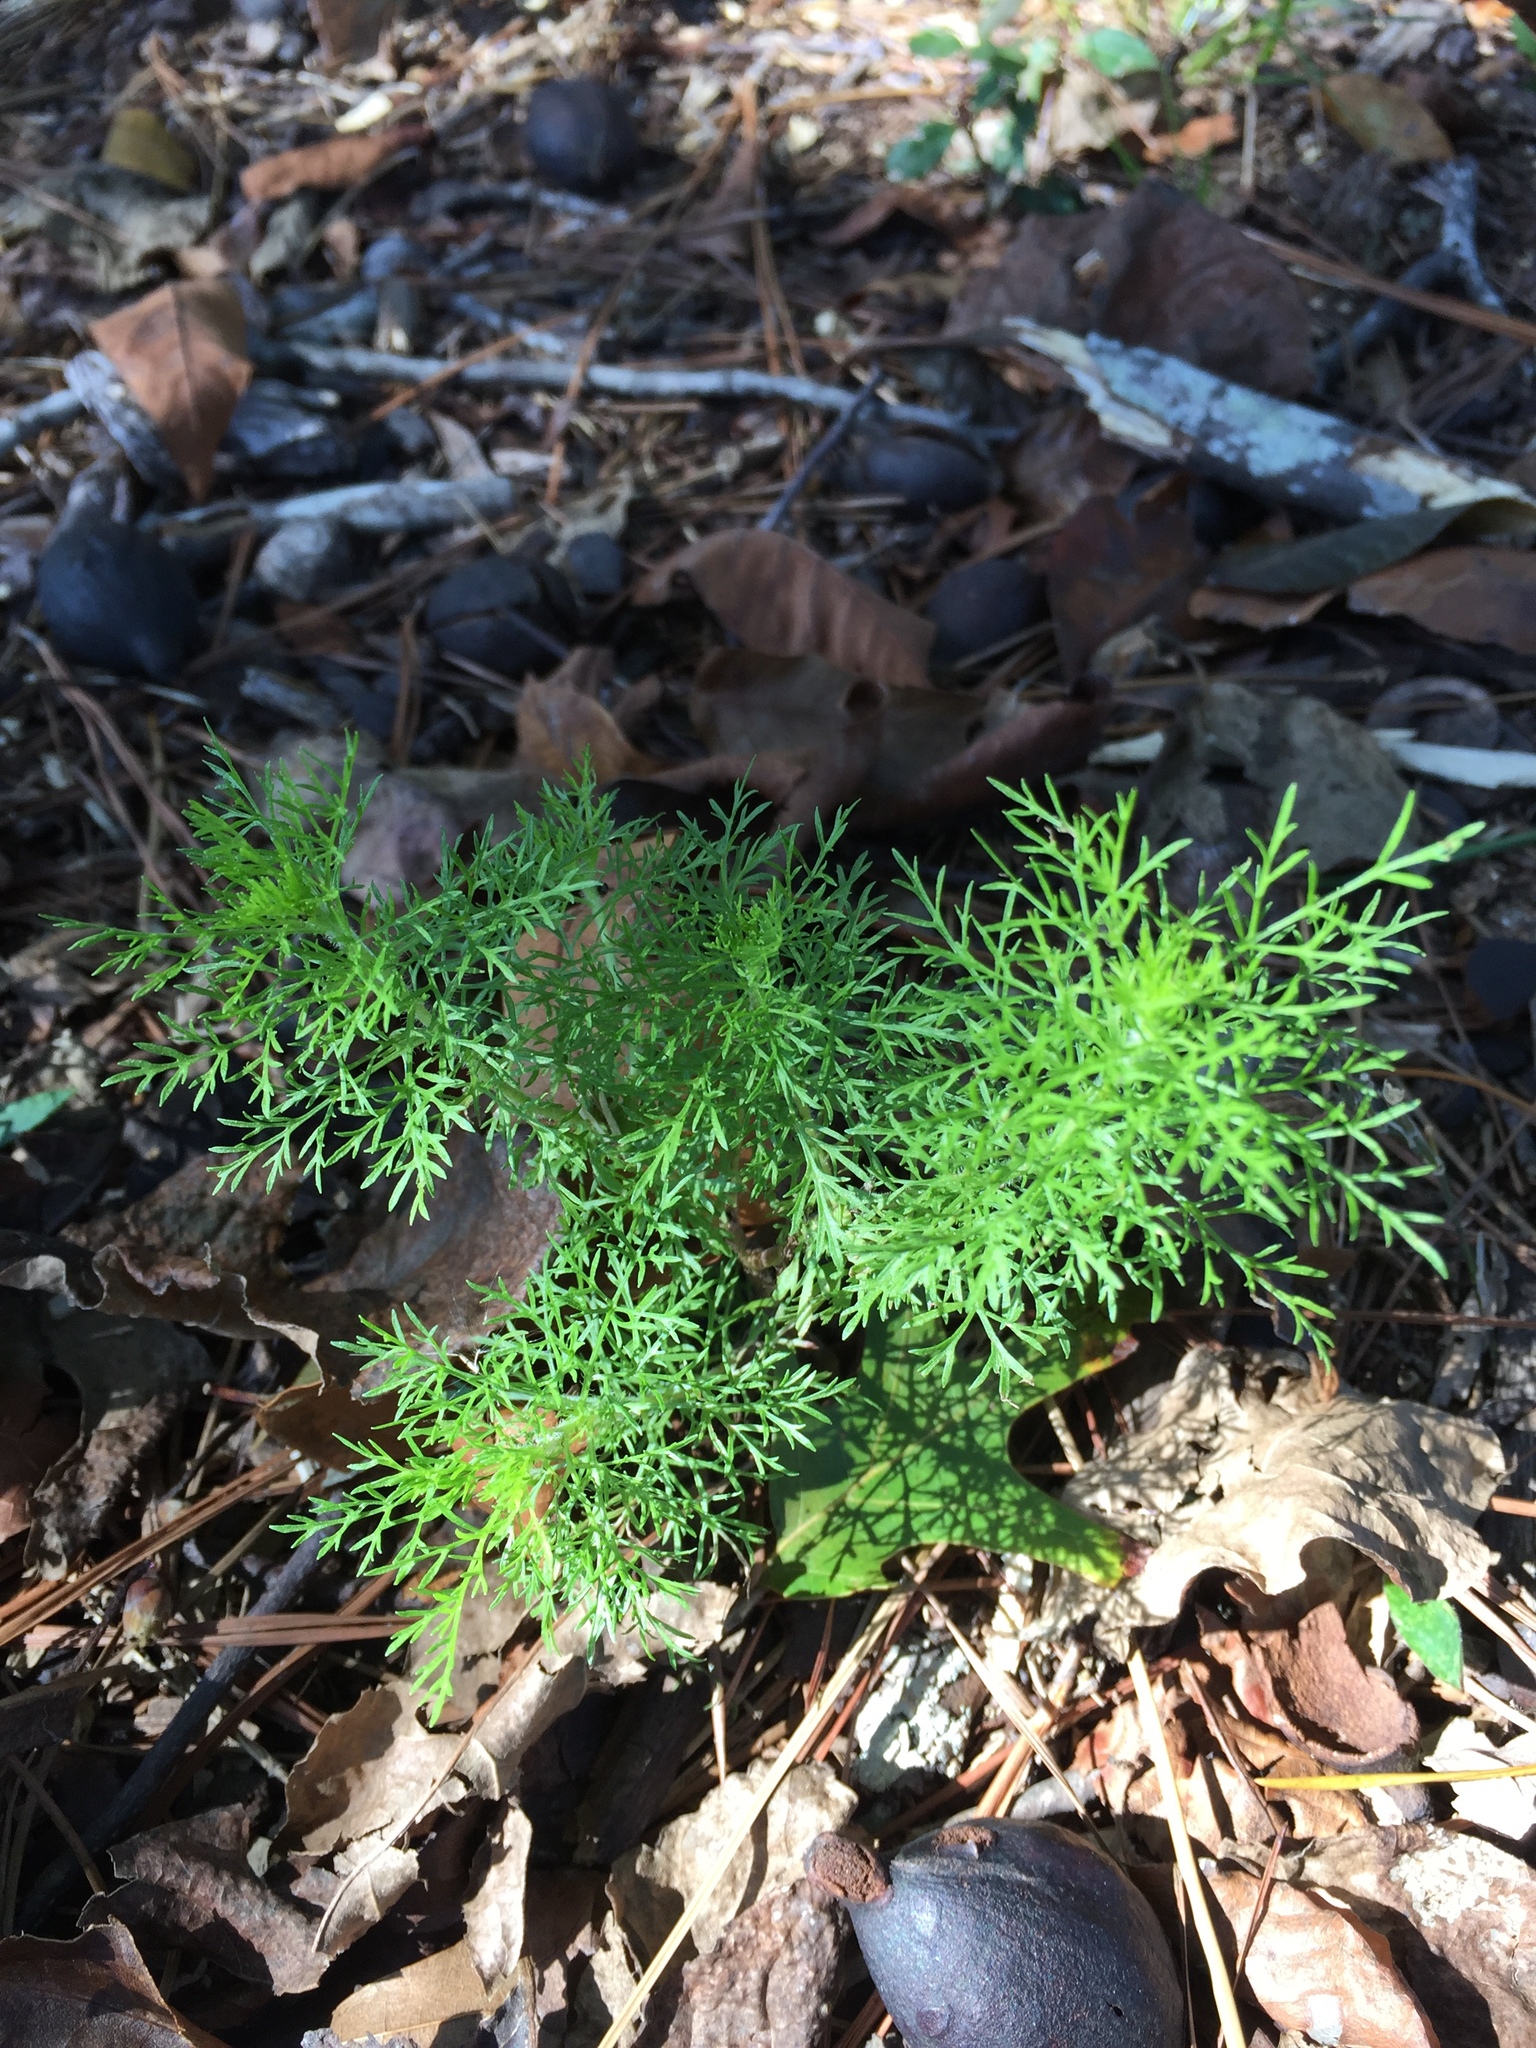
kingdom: Plantae
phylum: Tracheophyta
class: Magnoliopsida
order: Asterales
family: Asteraceae
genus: Eupatorium
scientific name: Eupatorium capillifolium
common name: Dog-fennel
